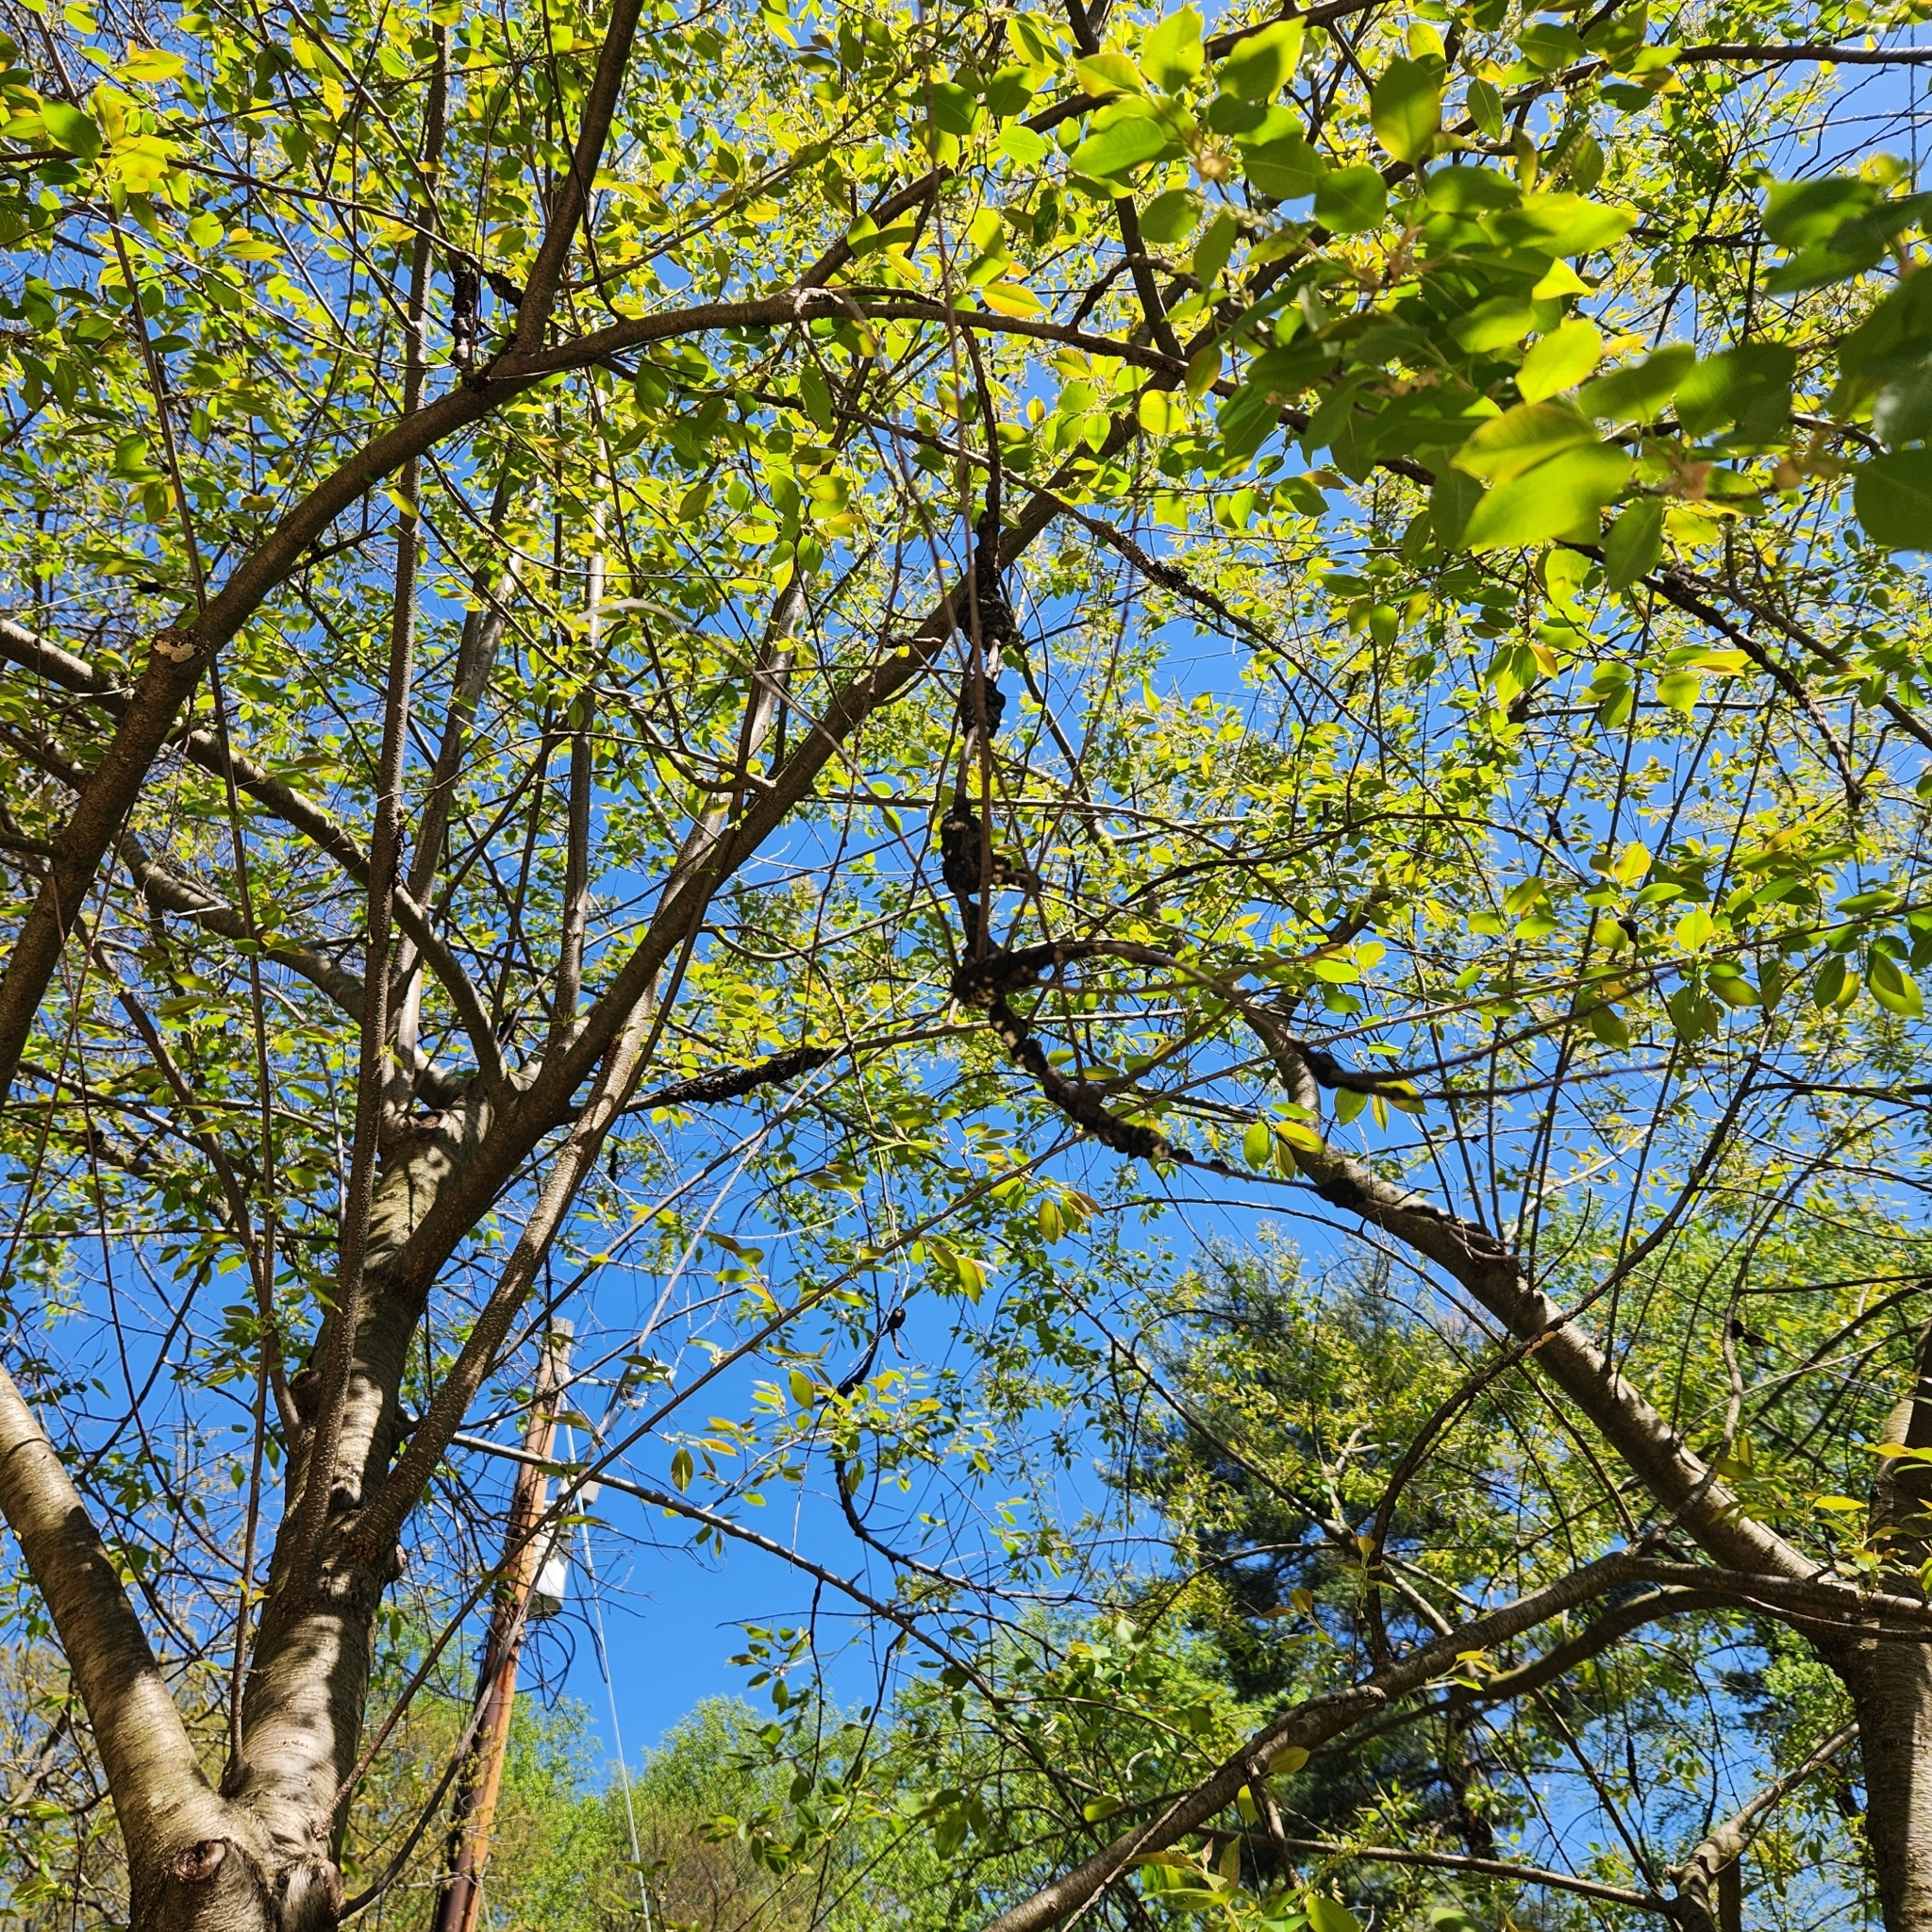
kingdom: Fungi
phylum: Ascomycota
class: Dothideomycetes
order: Venturiales
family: Venturiaceae
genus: Apiosporina
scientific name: Apiosporina morbosa
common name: Black knot
